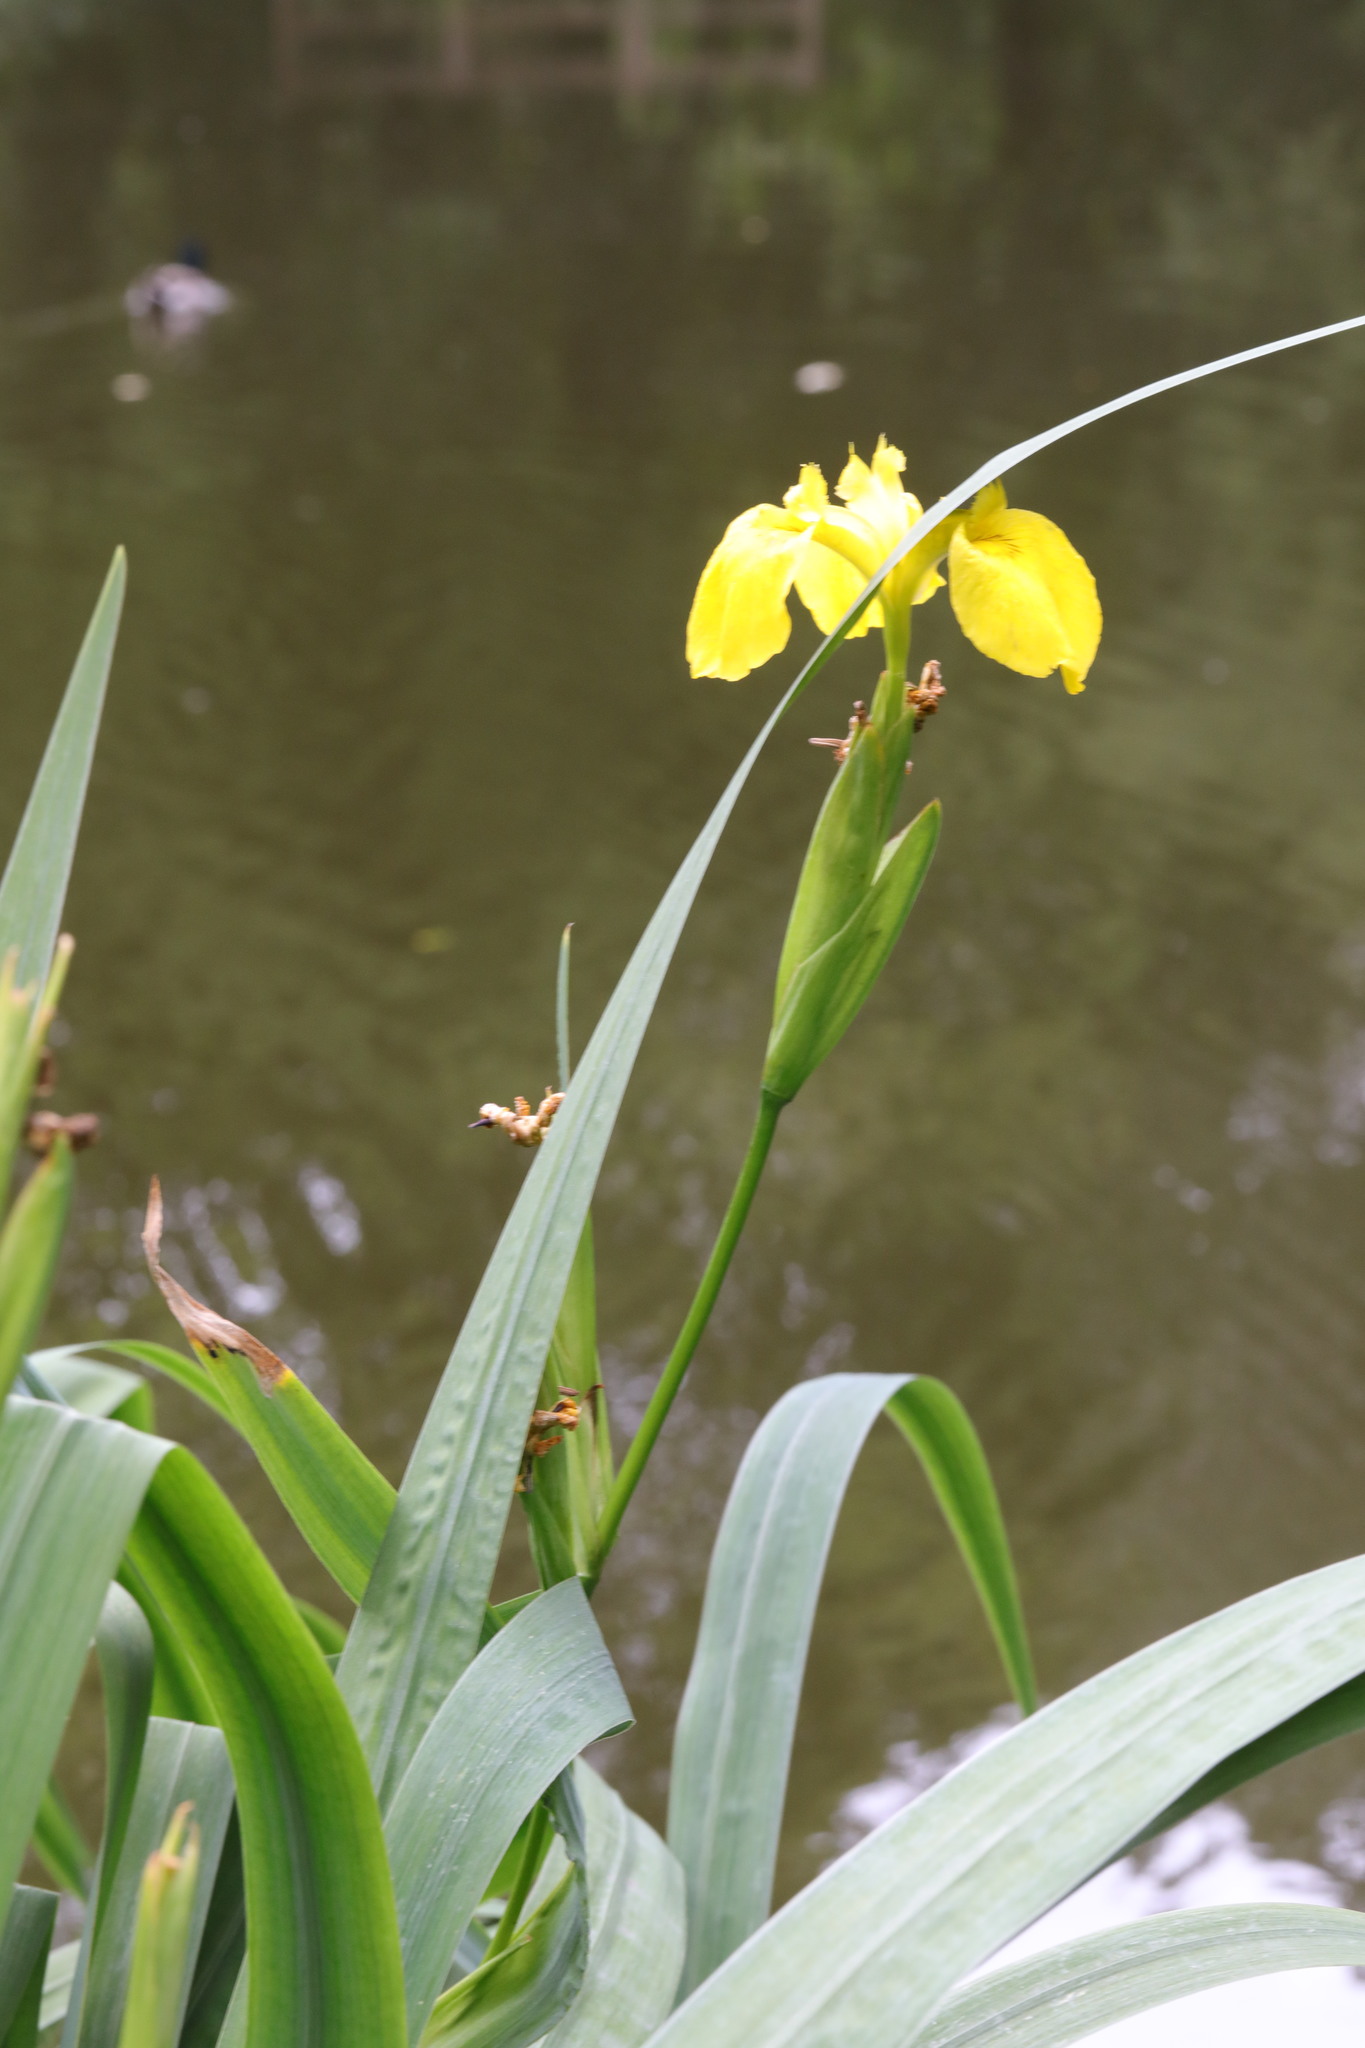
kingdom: Plantae
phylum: Tracheophyta
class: Liliopsida
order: Asparagales
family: Iridaceae
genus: Iris
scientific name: Iris pseudacorus
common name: Yellow flag
